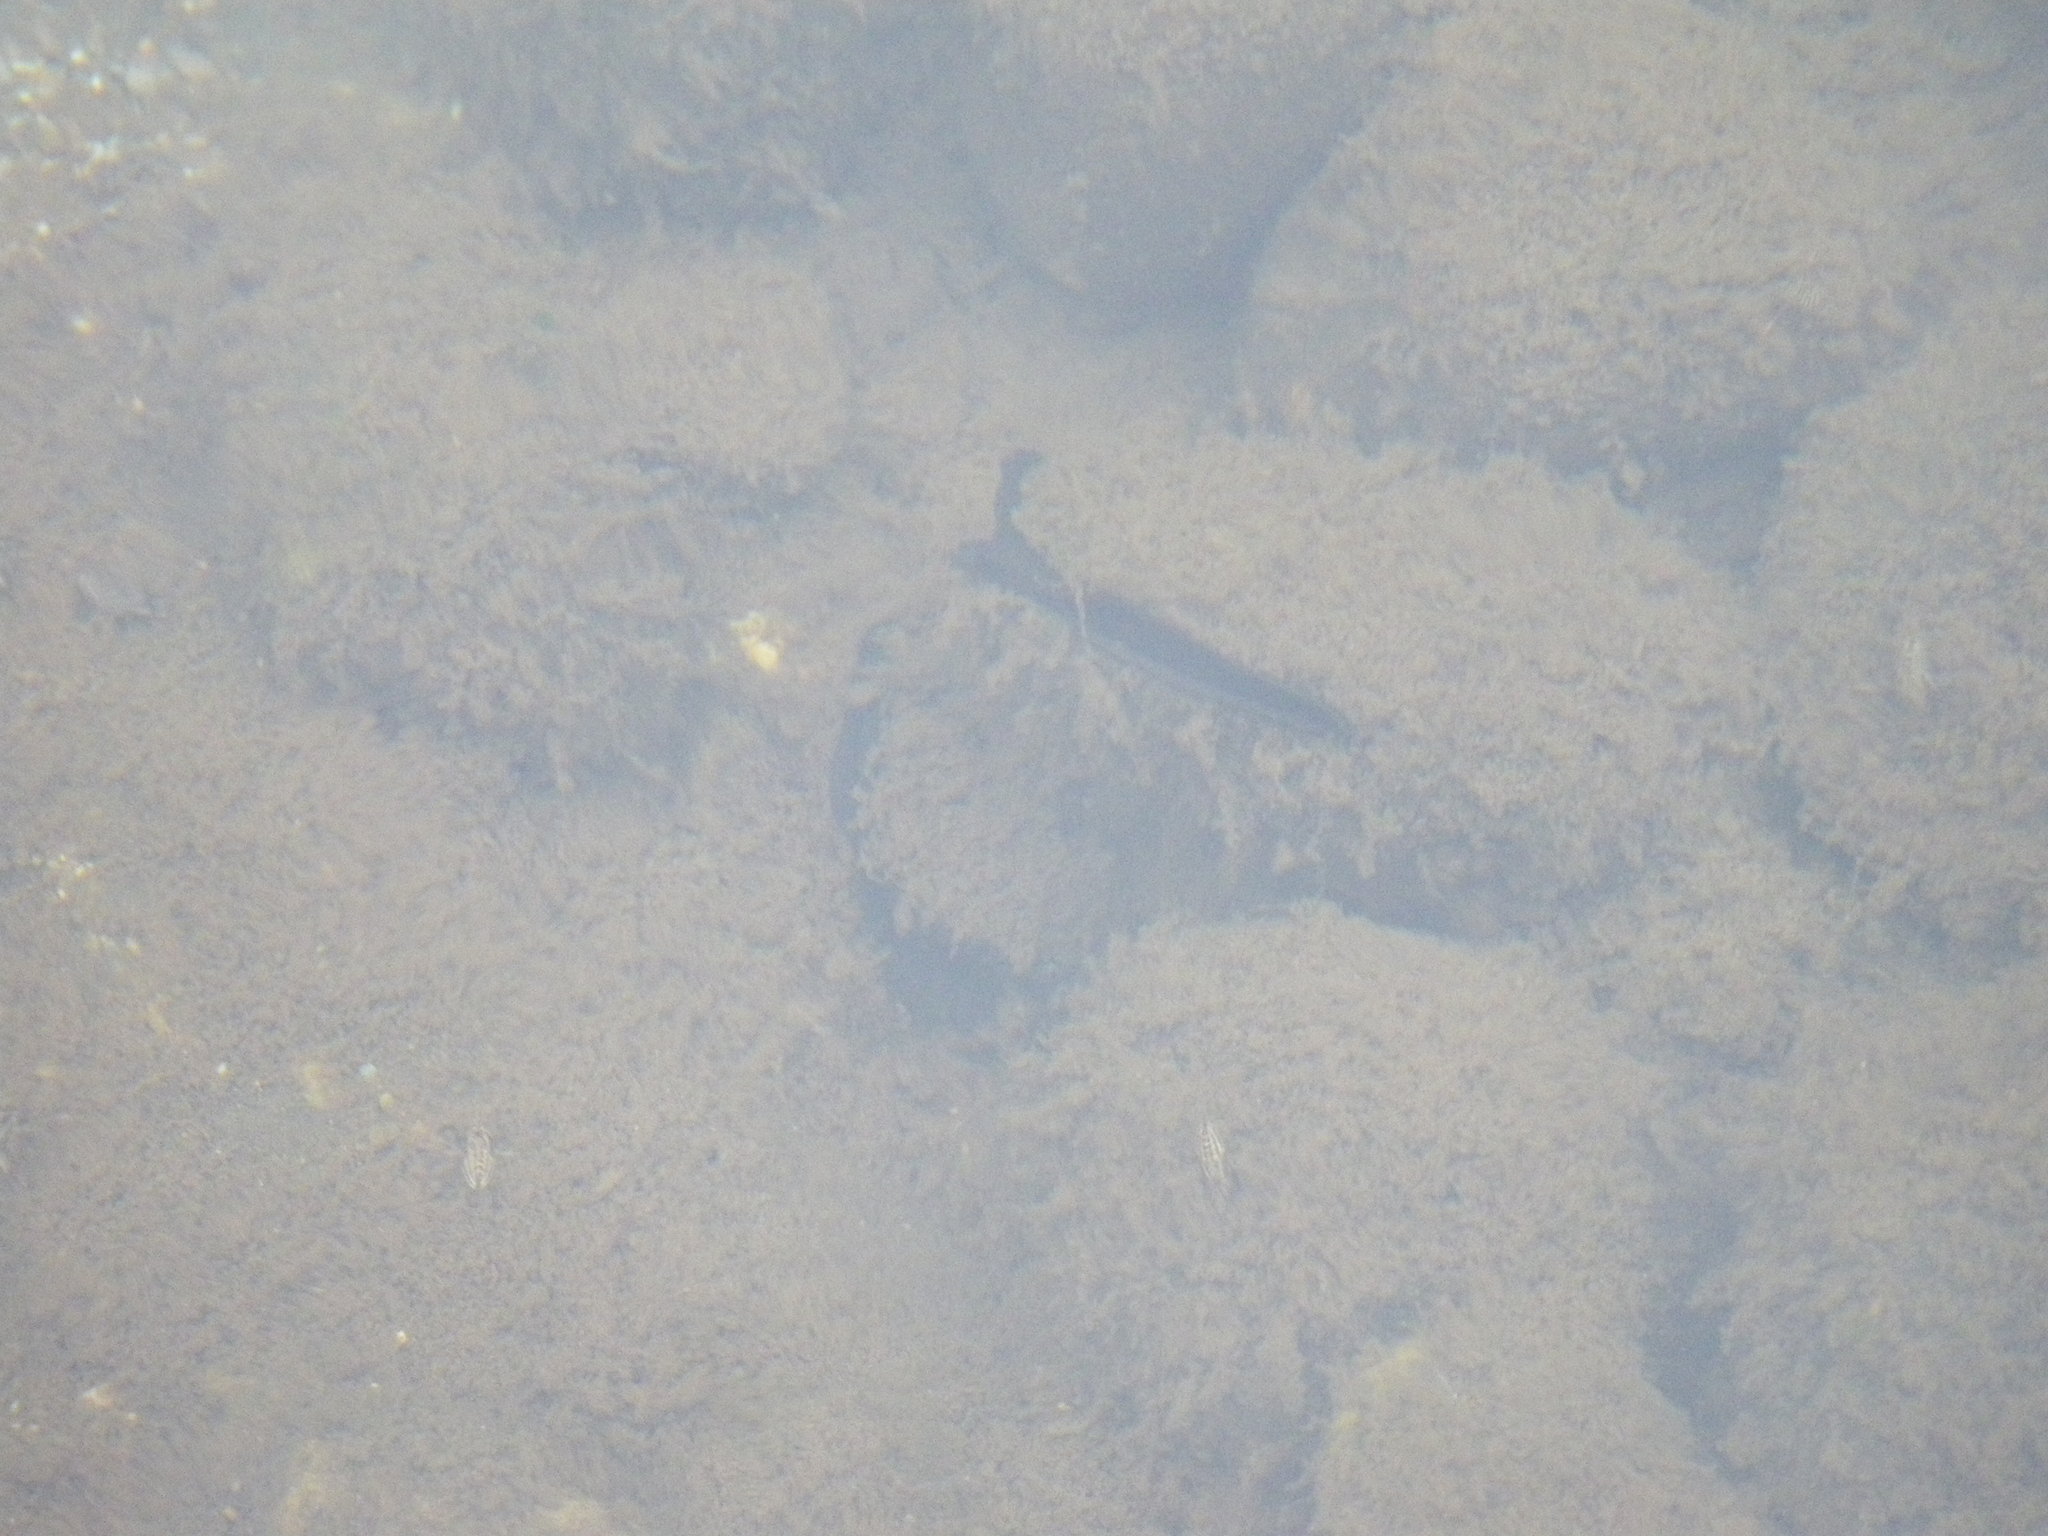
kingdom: Animalia
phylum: Mollusca
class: Bivalvia
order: Unionida
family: Margaritiferidae
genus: Margaritifera
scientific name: Margaritifera falcata
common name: Western pearlshell
